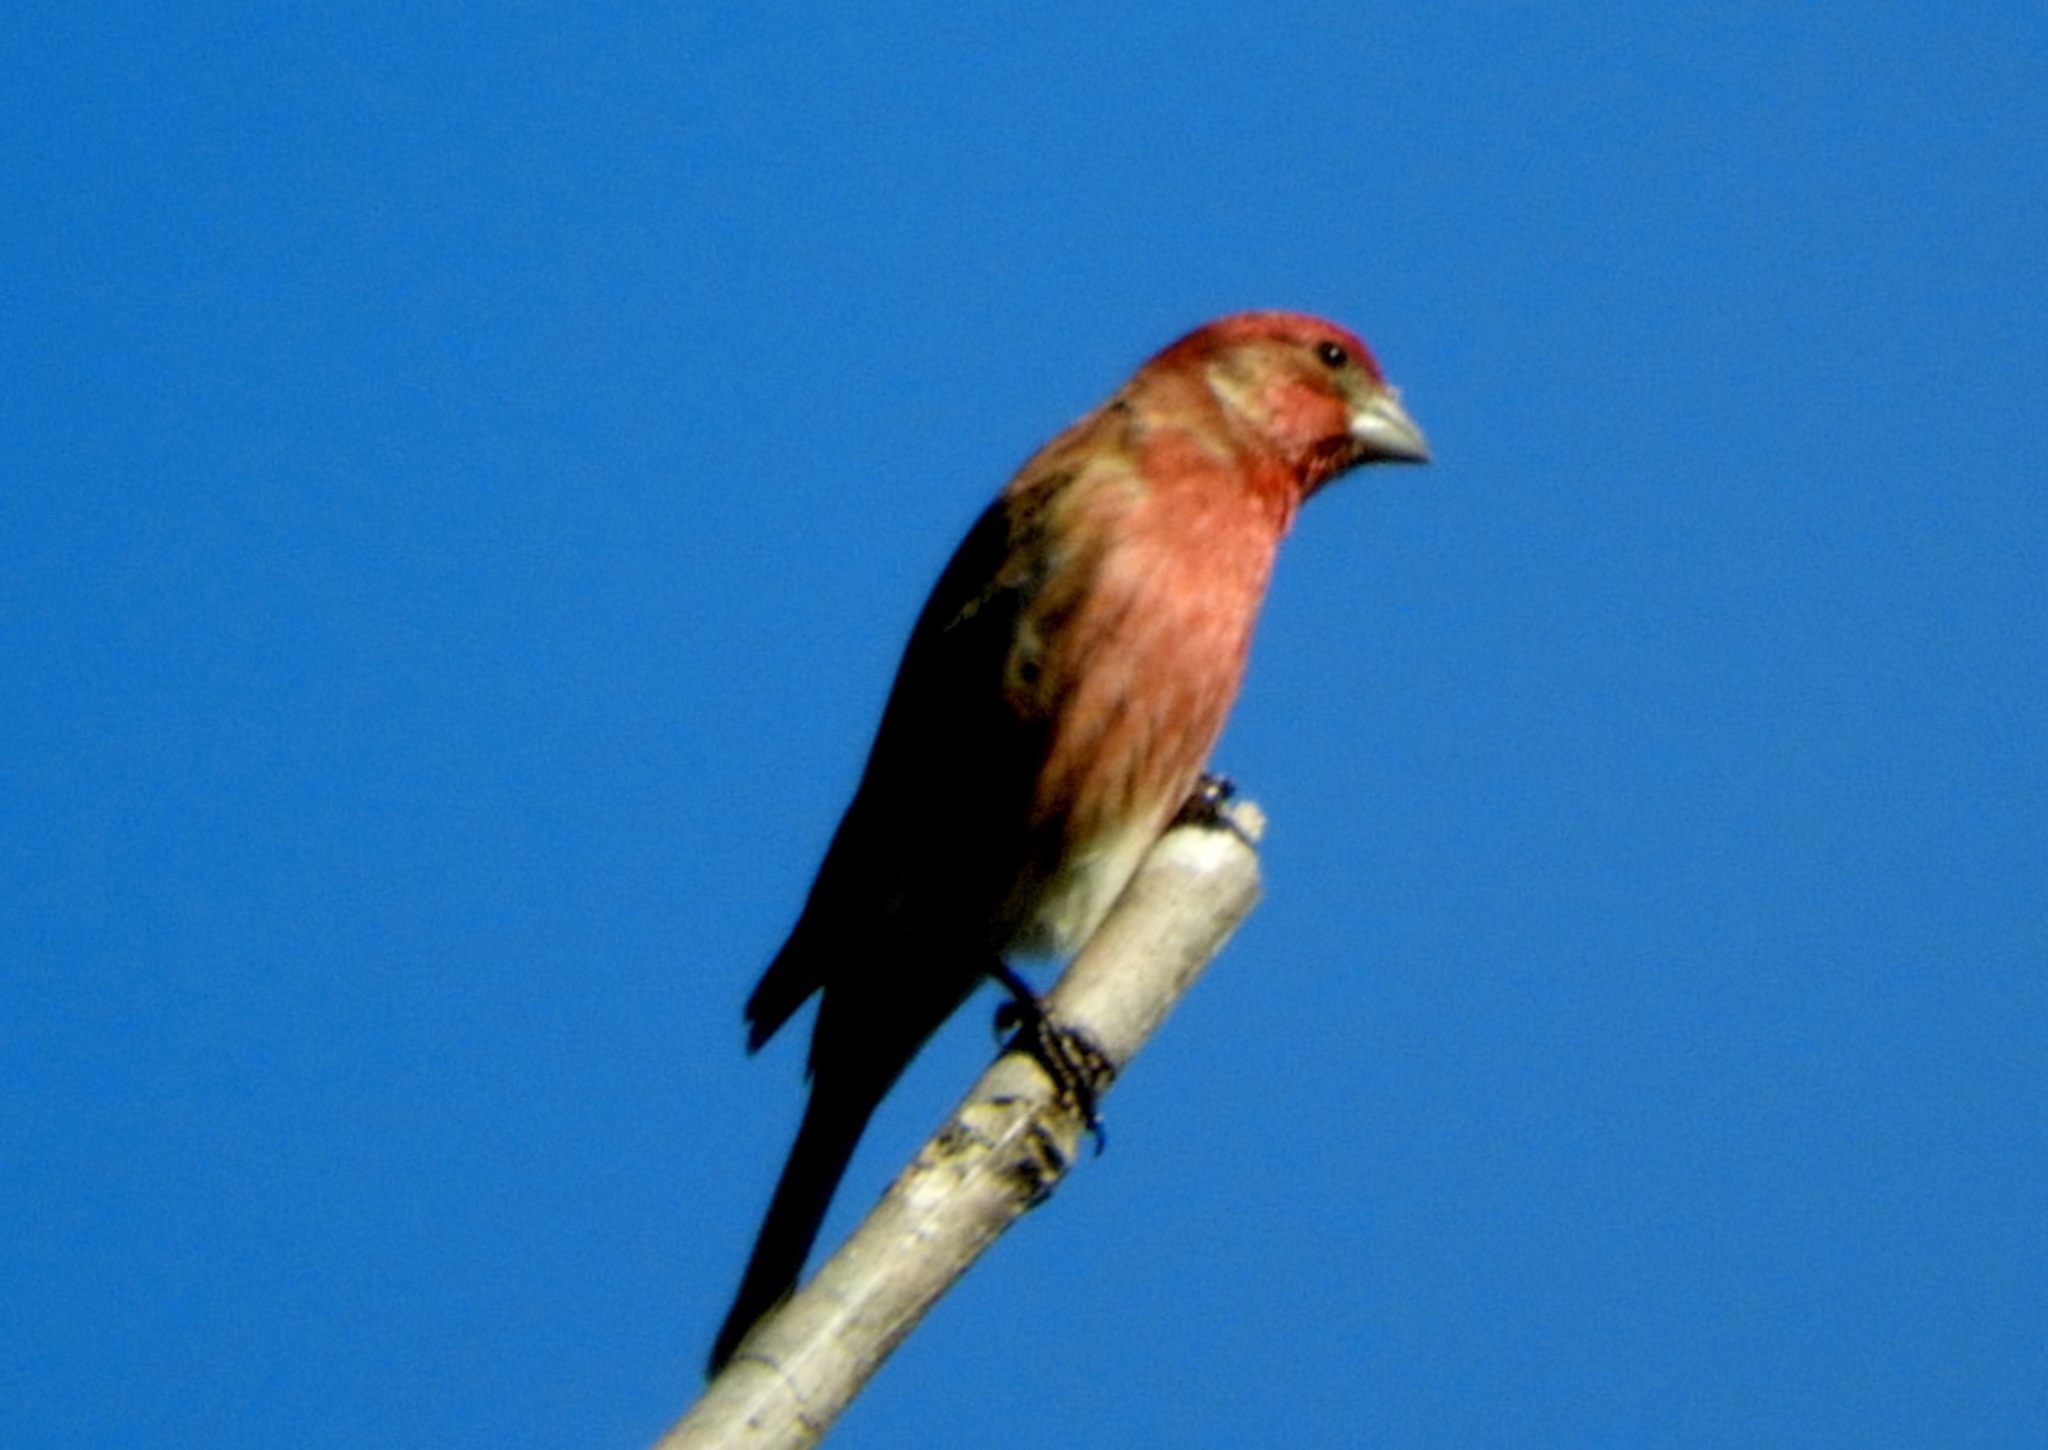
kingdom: Animalia
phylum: Chordata
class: Aves
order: Passeriformes
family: Fringillidae
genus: Haemorhous
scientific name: Haemorhous mexicanus
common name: House finch
